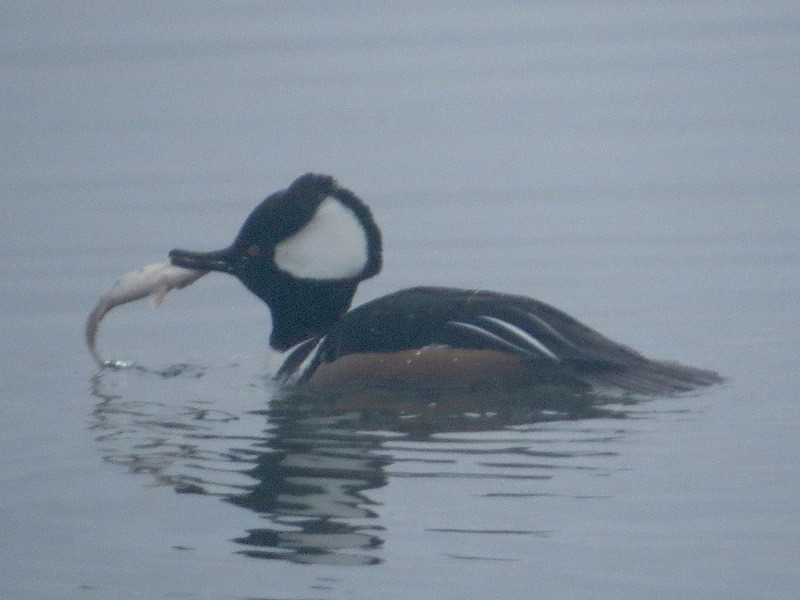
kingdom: Animalia
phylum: Chordata
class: Aves
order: Anseriformes
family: Anatidae
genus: Lophodytes
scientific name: Lophodytes cucullatus
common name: Hooded merganser
